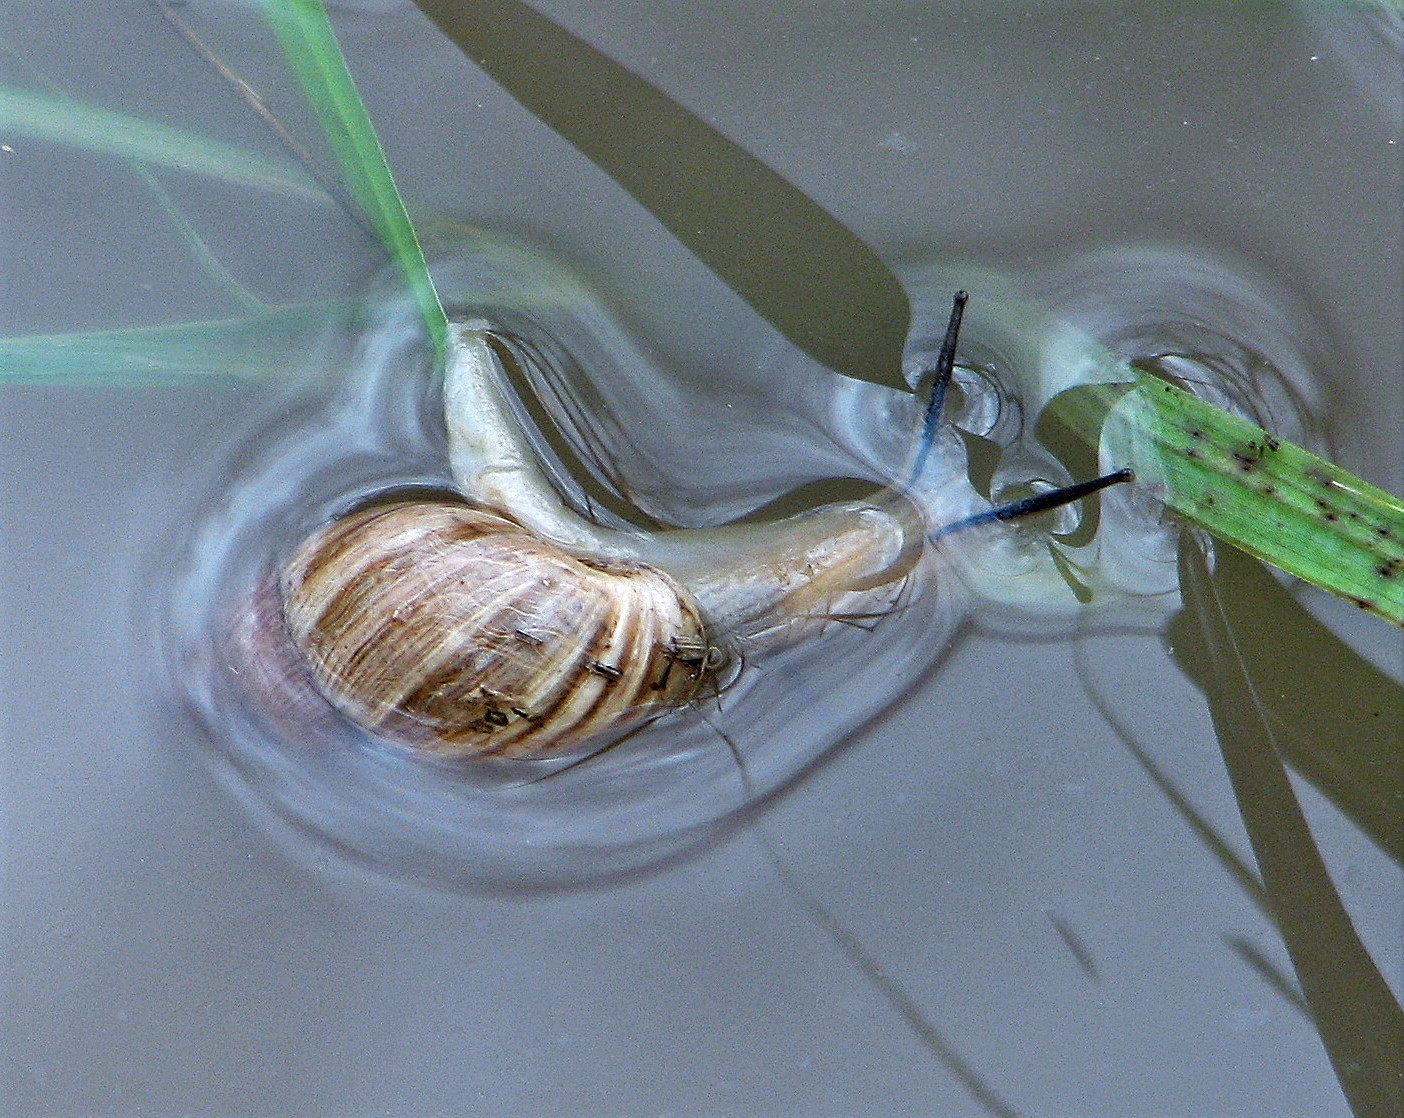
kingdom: Animalia
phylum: Mollusca
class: Gastropoda
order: Stylommatophora
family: Bulimulidae
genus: Bulimulus
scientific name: Bulimulus bonariensis
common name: Snail
